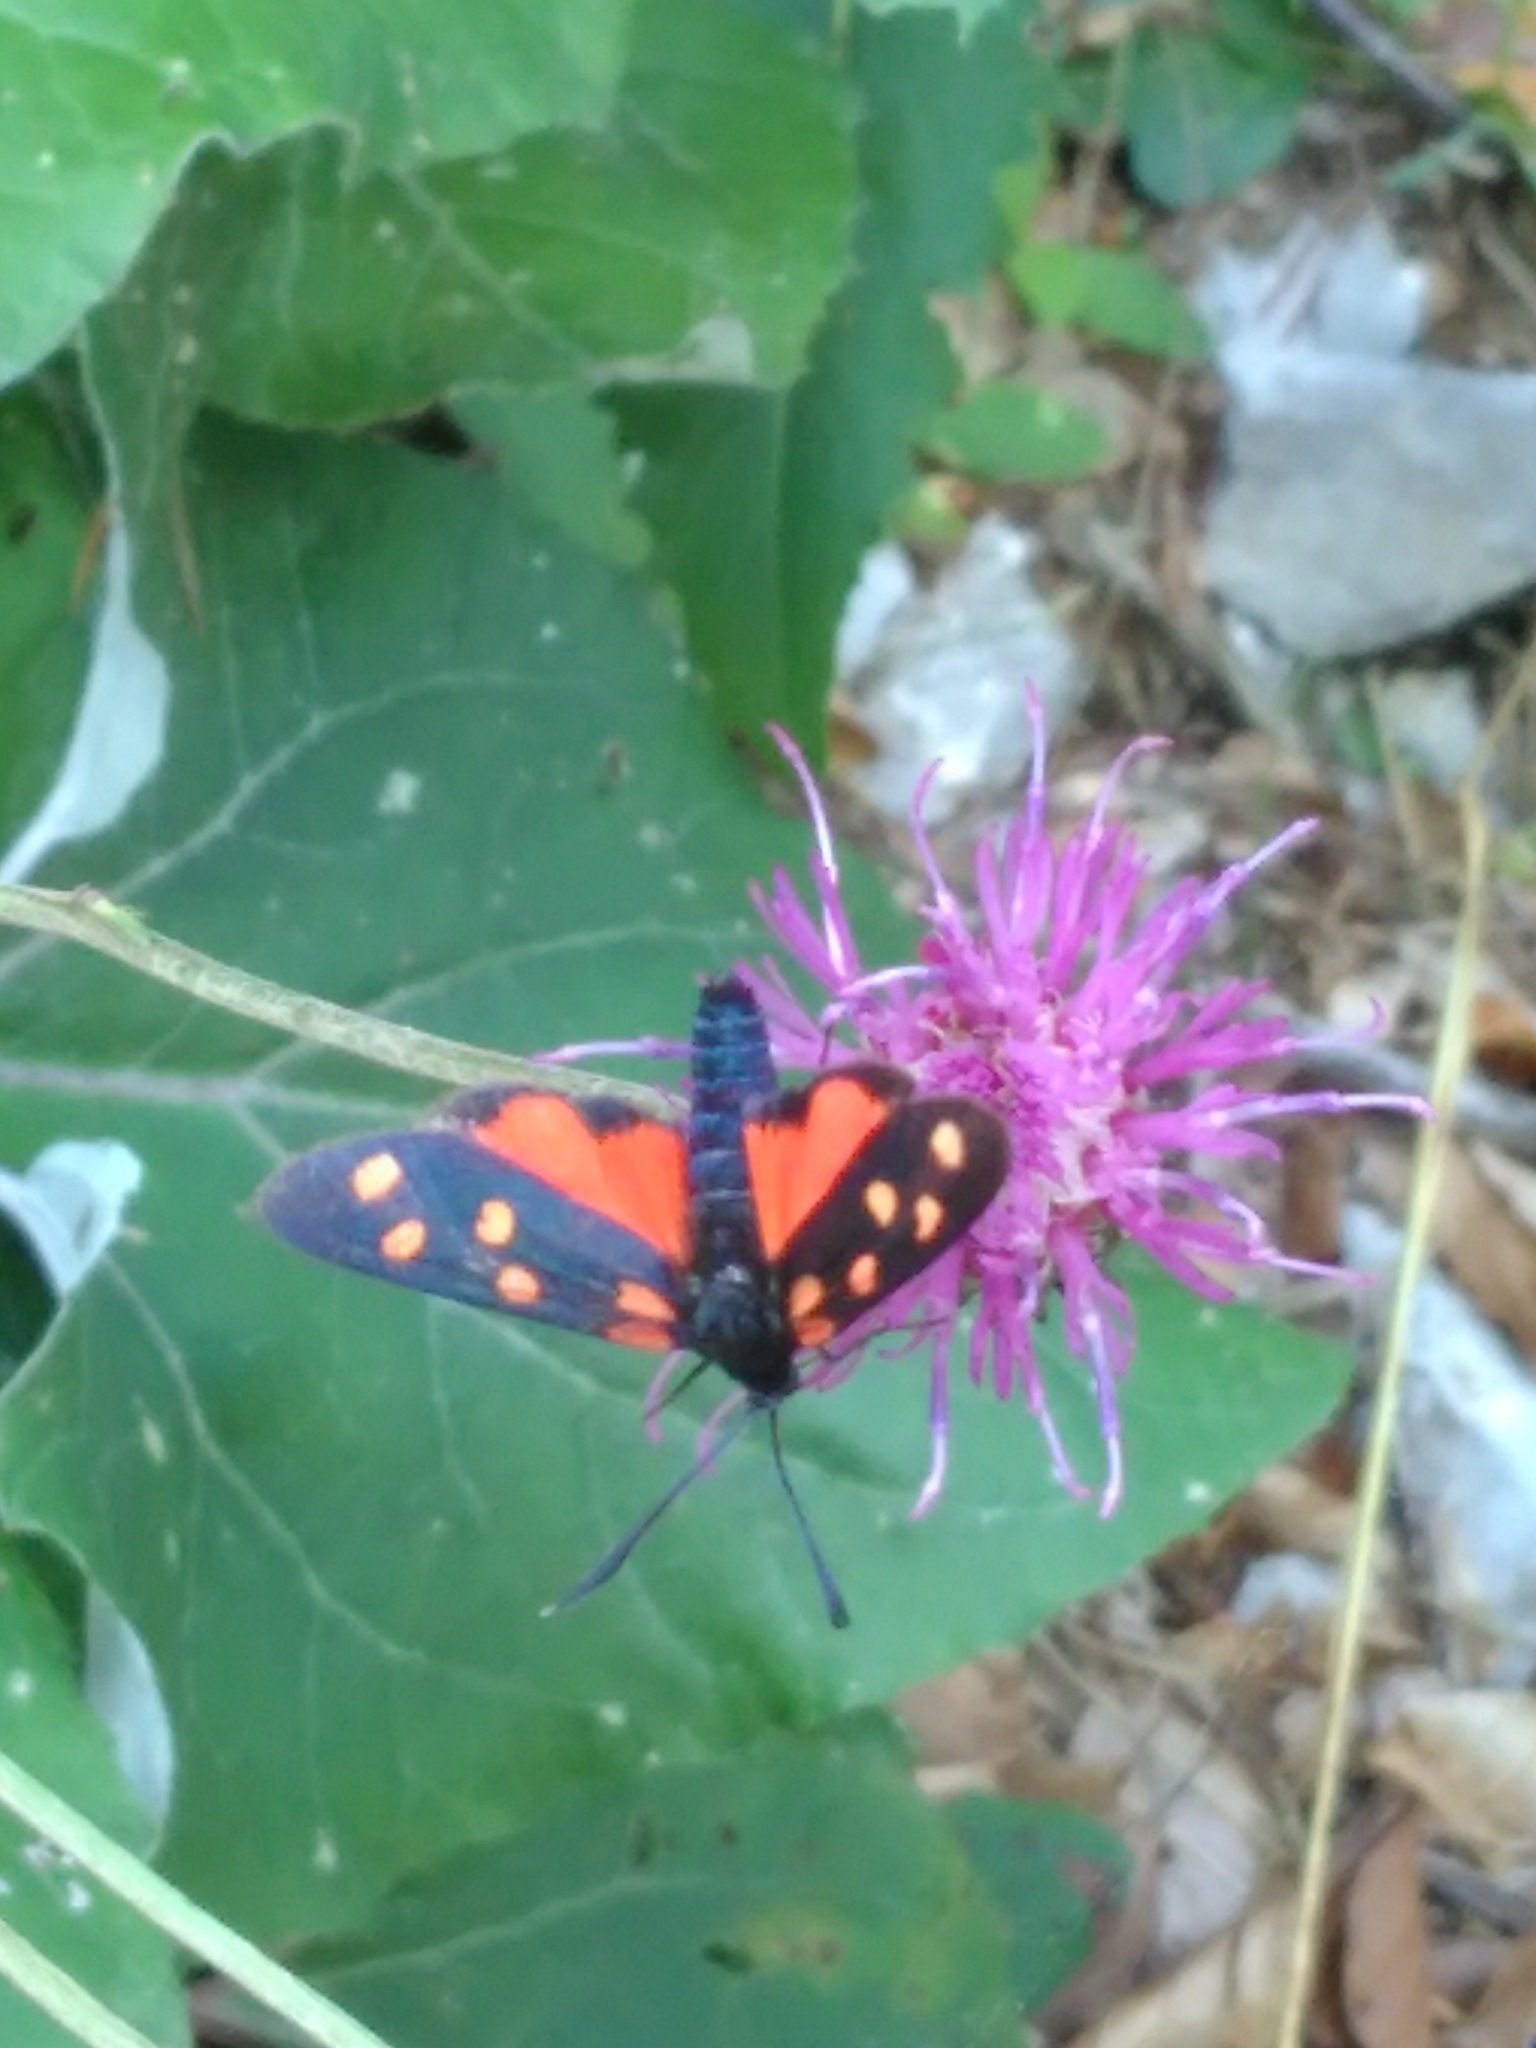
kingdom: Animalia
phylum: Arthropoda
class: Insecta
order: Lepidoptera
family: Zygaenidae
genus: Zygaena
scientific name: Zygaena transalpina
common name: Southern six spot burnet
